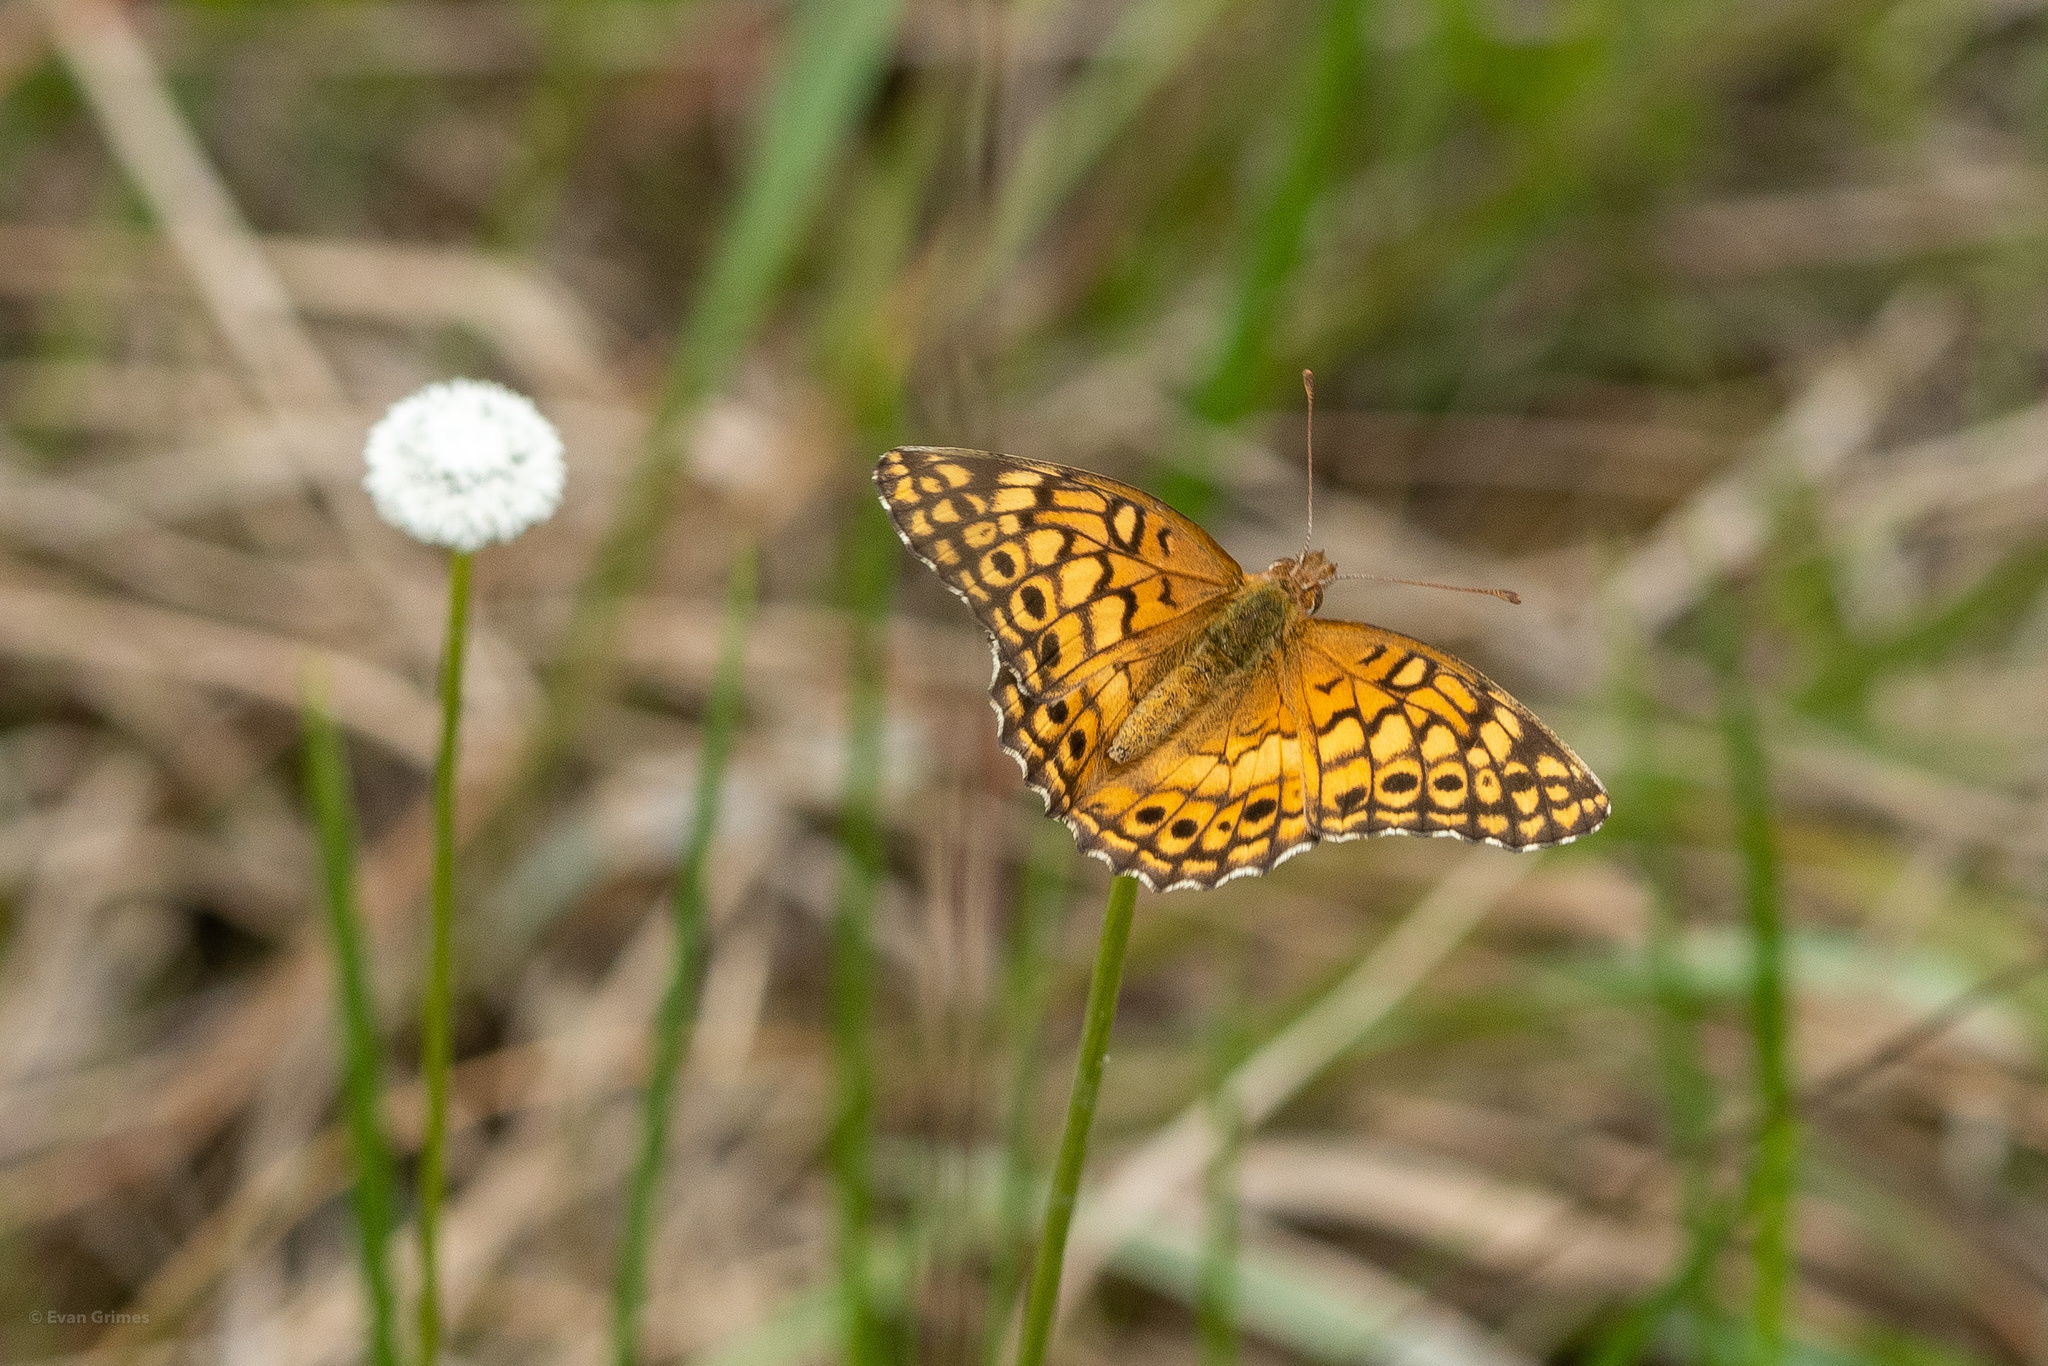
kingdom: Animalia
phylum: Arthropoda
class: Insecta
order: Lepidoptera
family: Nymphalidae
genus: Euptoieta
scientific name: Euptoieta claudia
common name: Variegated fritillary
